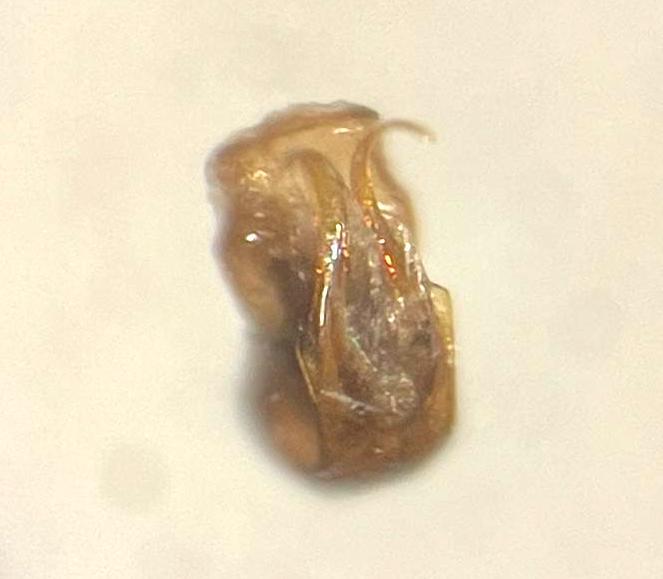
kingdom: Animalia
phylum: Arthropoda
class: Insecta
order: Hemiptera
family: Cicadellidae
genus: Ophiola
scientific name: Ophiola decumana
